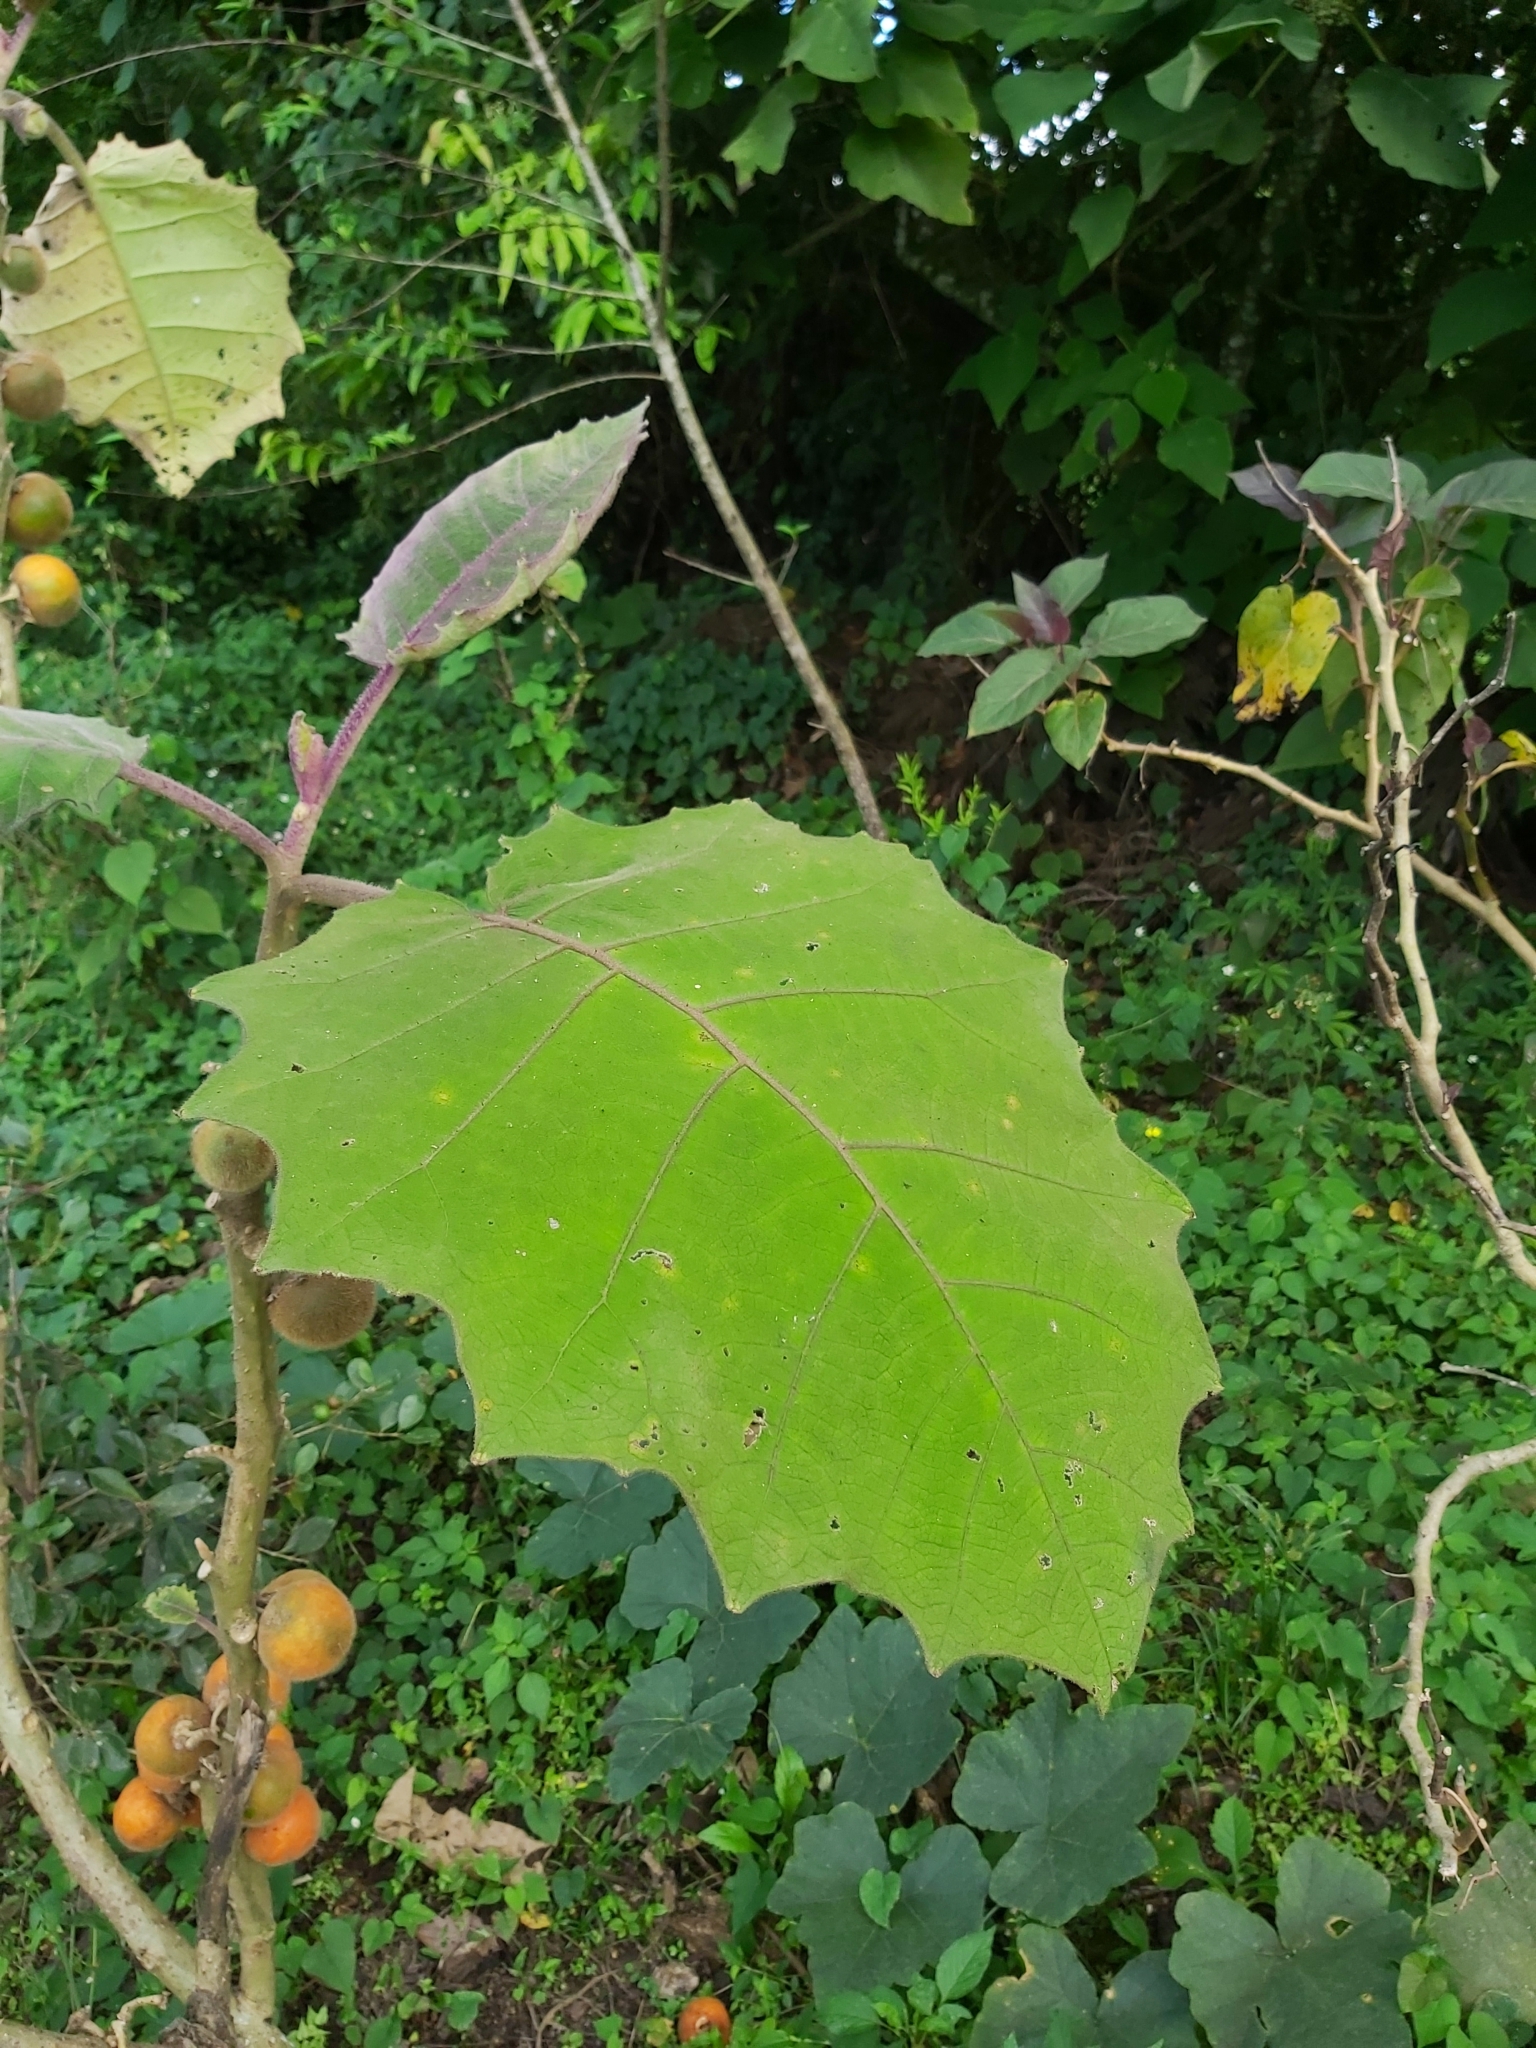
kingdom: Plantae
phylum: Tracheophyta
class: Magnoliopsida
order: Solanales
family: Solanaceae
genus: Solanum
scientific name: Solanum quitoense
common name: Quito-orange
